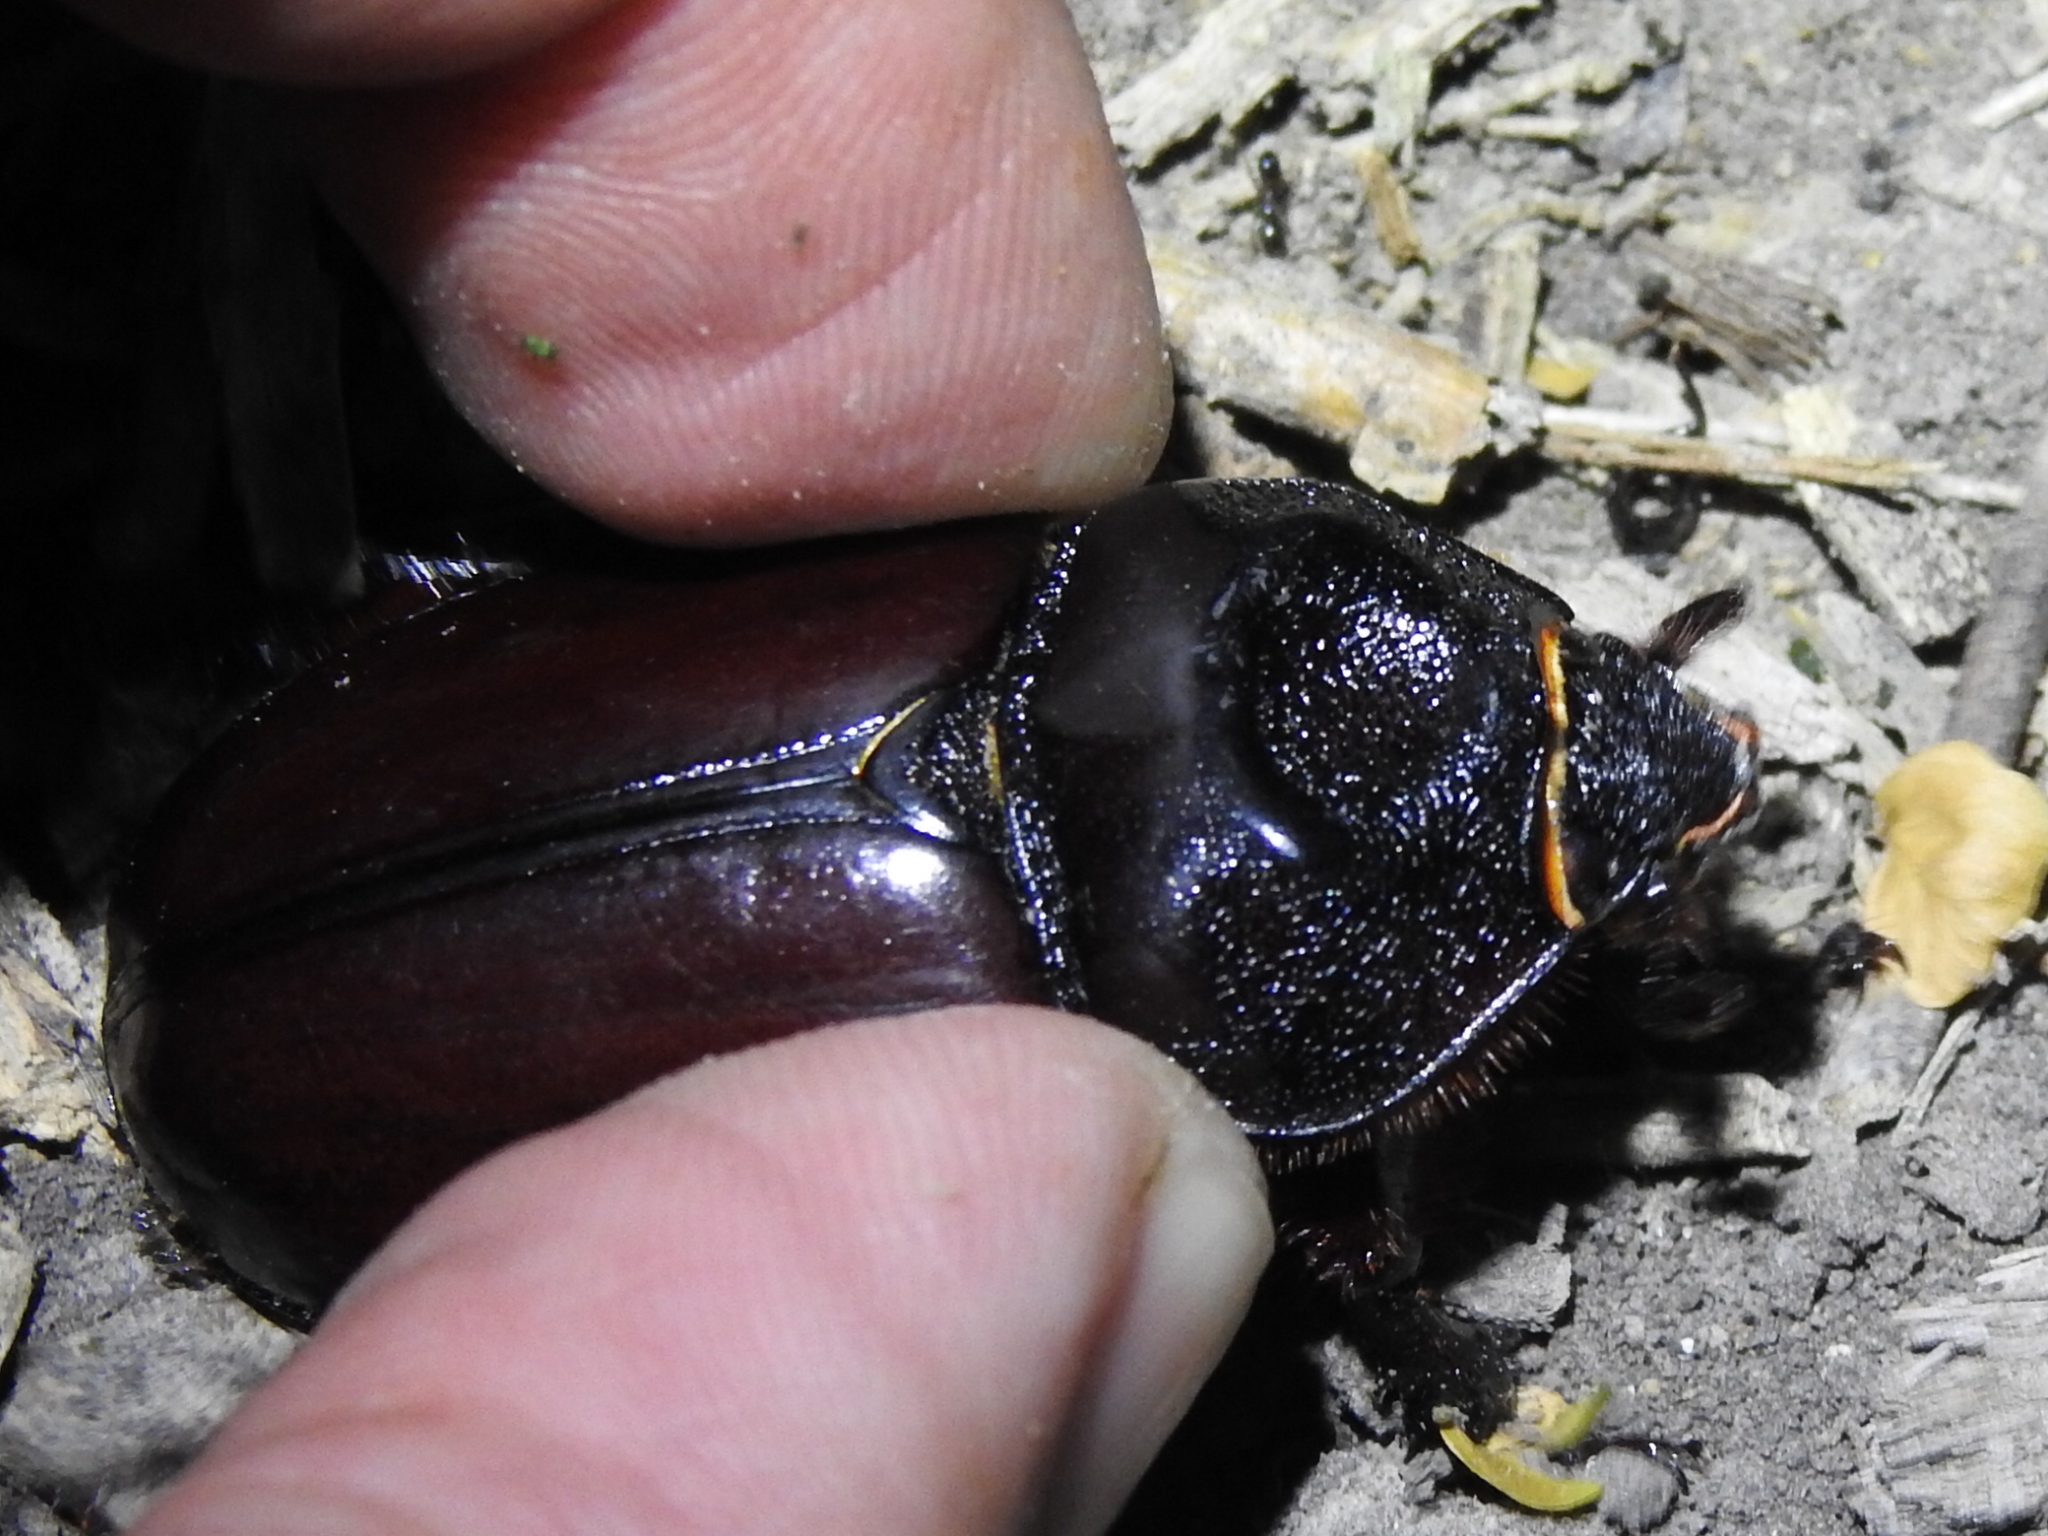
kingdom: Animalia
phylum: Arthropoda
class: Insecta
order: Coleoptera
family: Scarabaeidae
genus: Strategus
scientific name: Strategus aloeus
